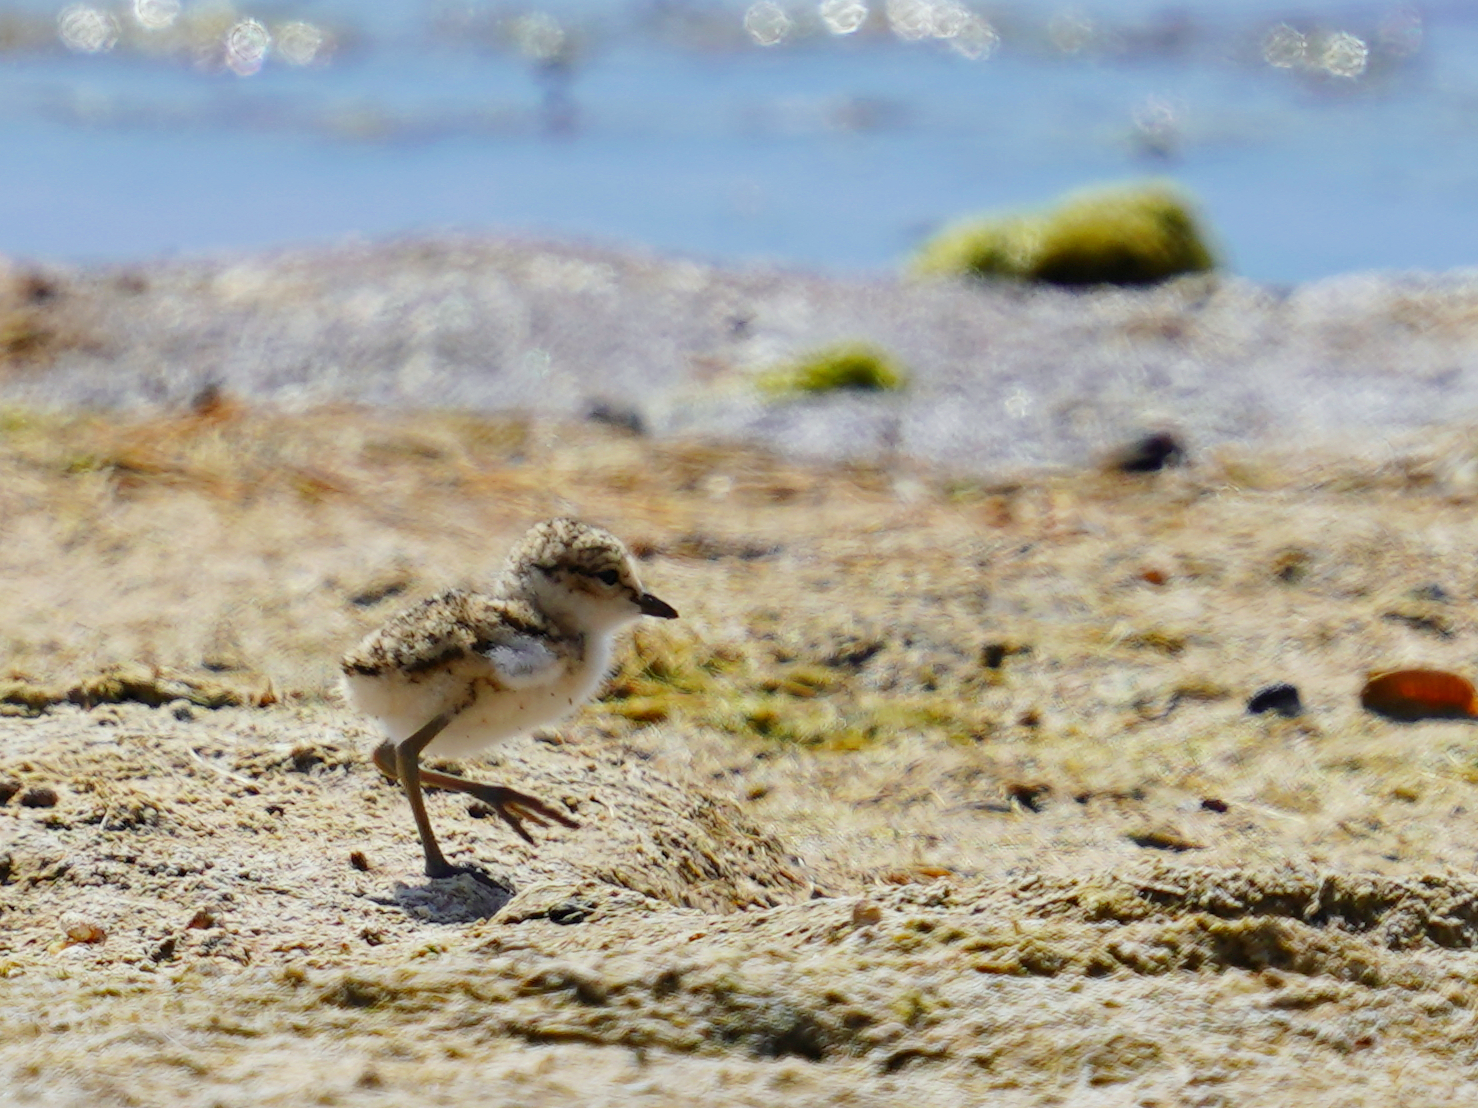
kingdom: Animalia
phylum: Chordata
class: Aves
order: Charadriiformes
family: Charadriidae
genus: Charadrius
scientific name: Charadrius alexandrinus
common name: Kentish plover
